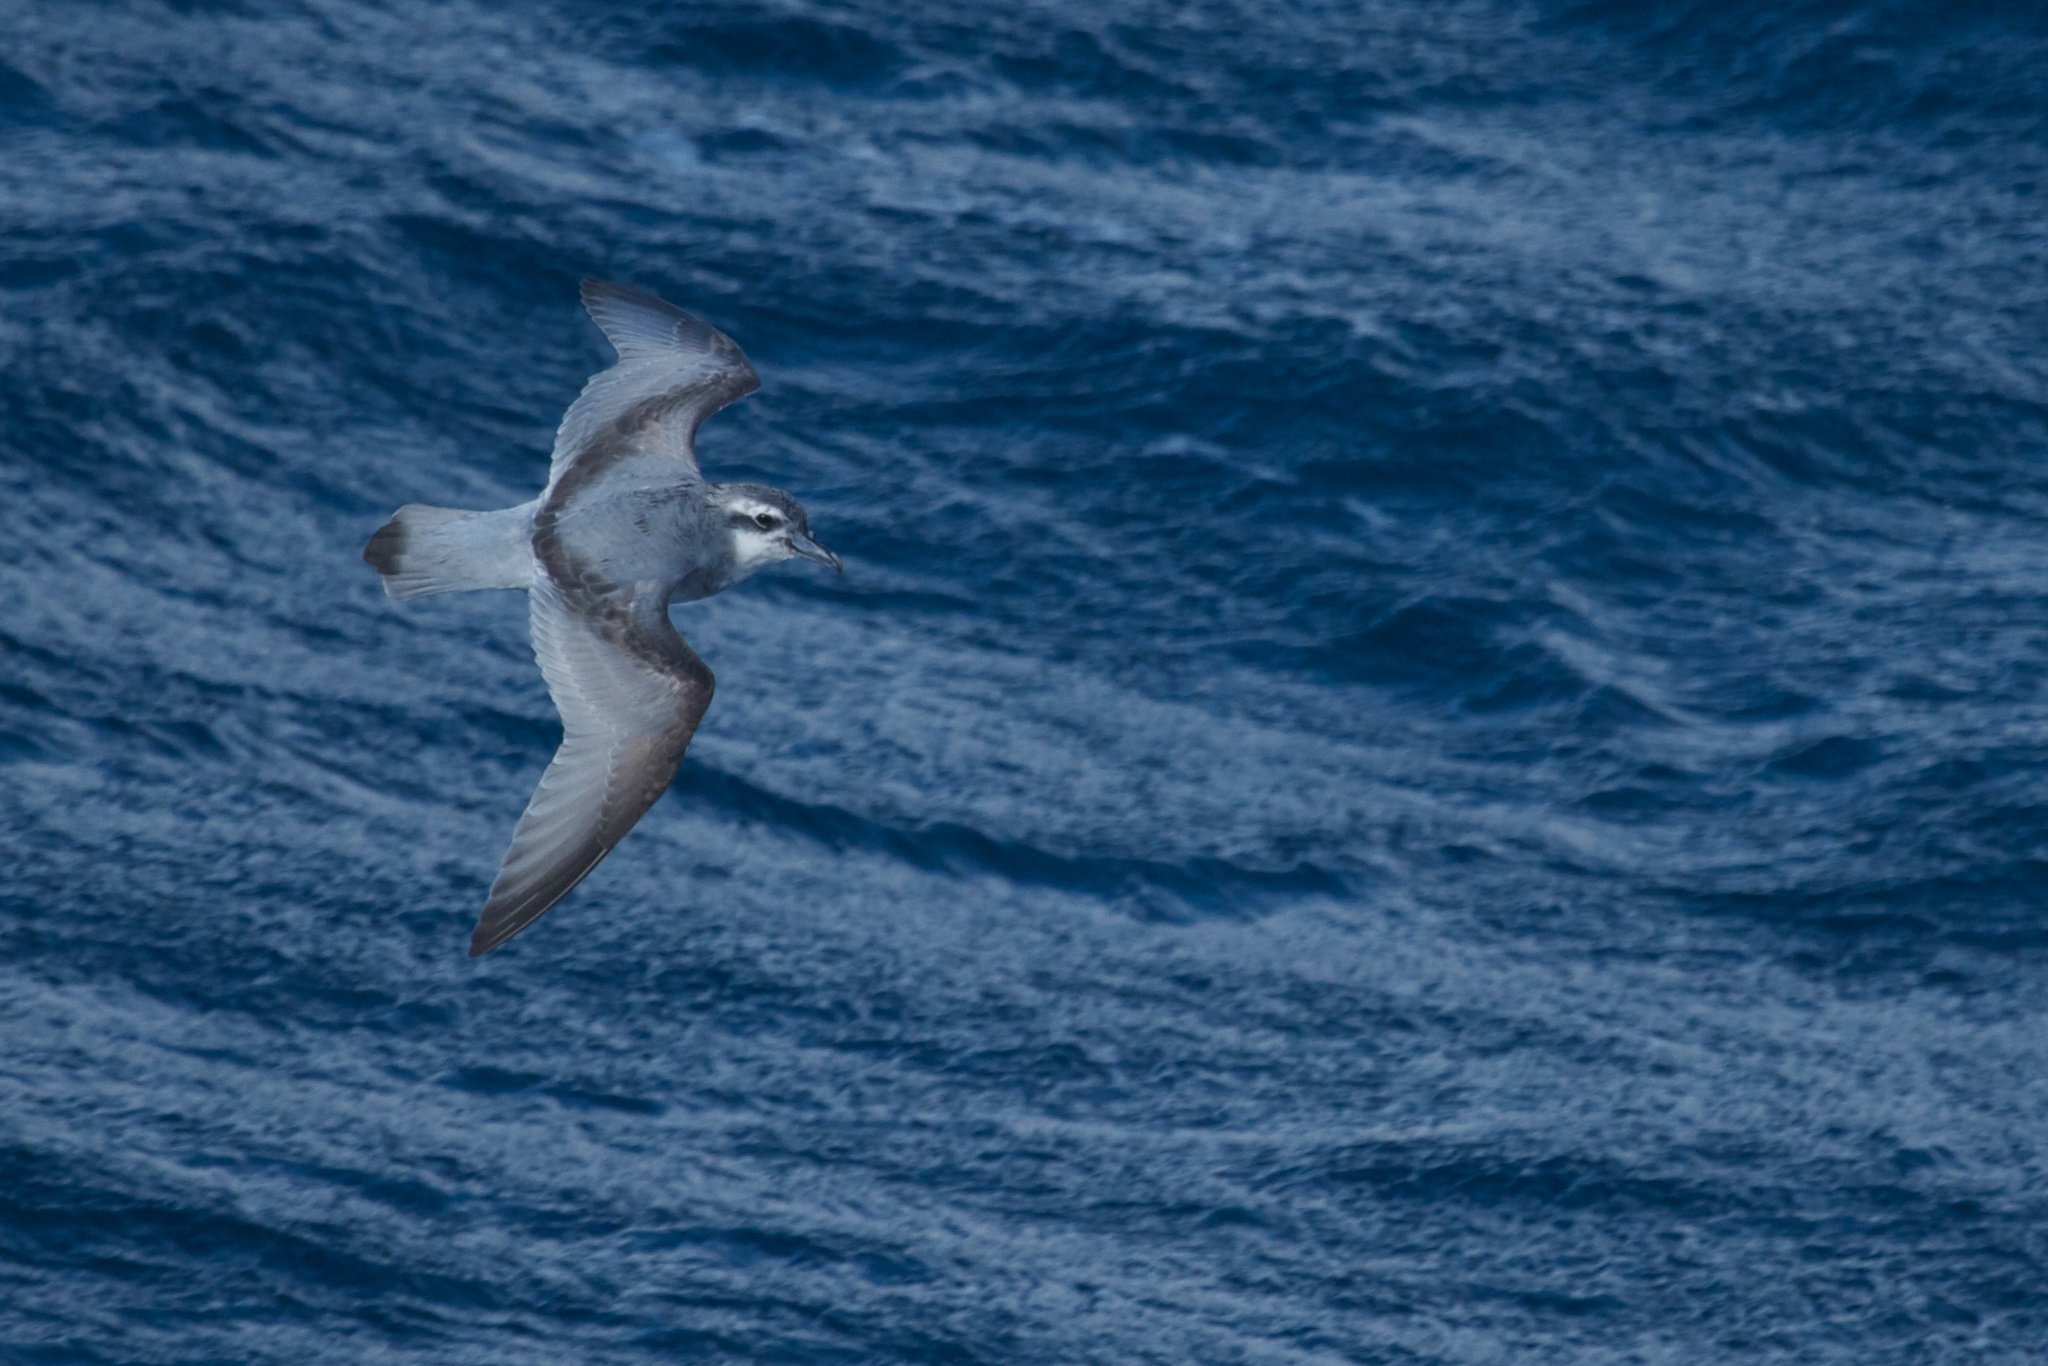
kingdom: Animalia
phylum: Chordata
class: Aves
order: Procellariiformes
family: Procellariidae
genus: Pachyptila
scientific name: Pachyptila desolata
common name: Antarctic prion
